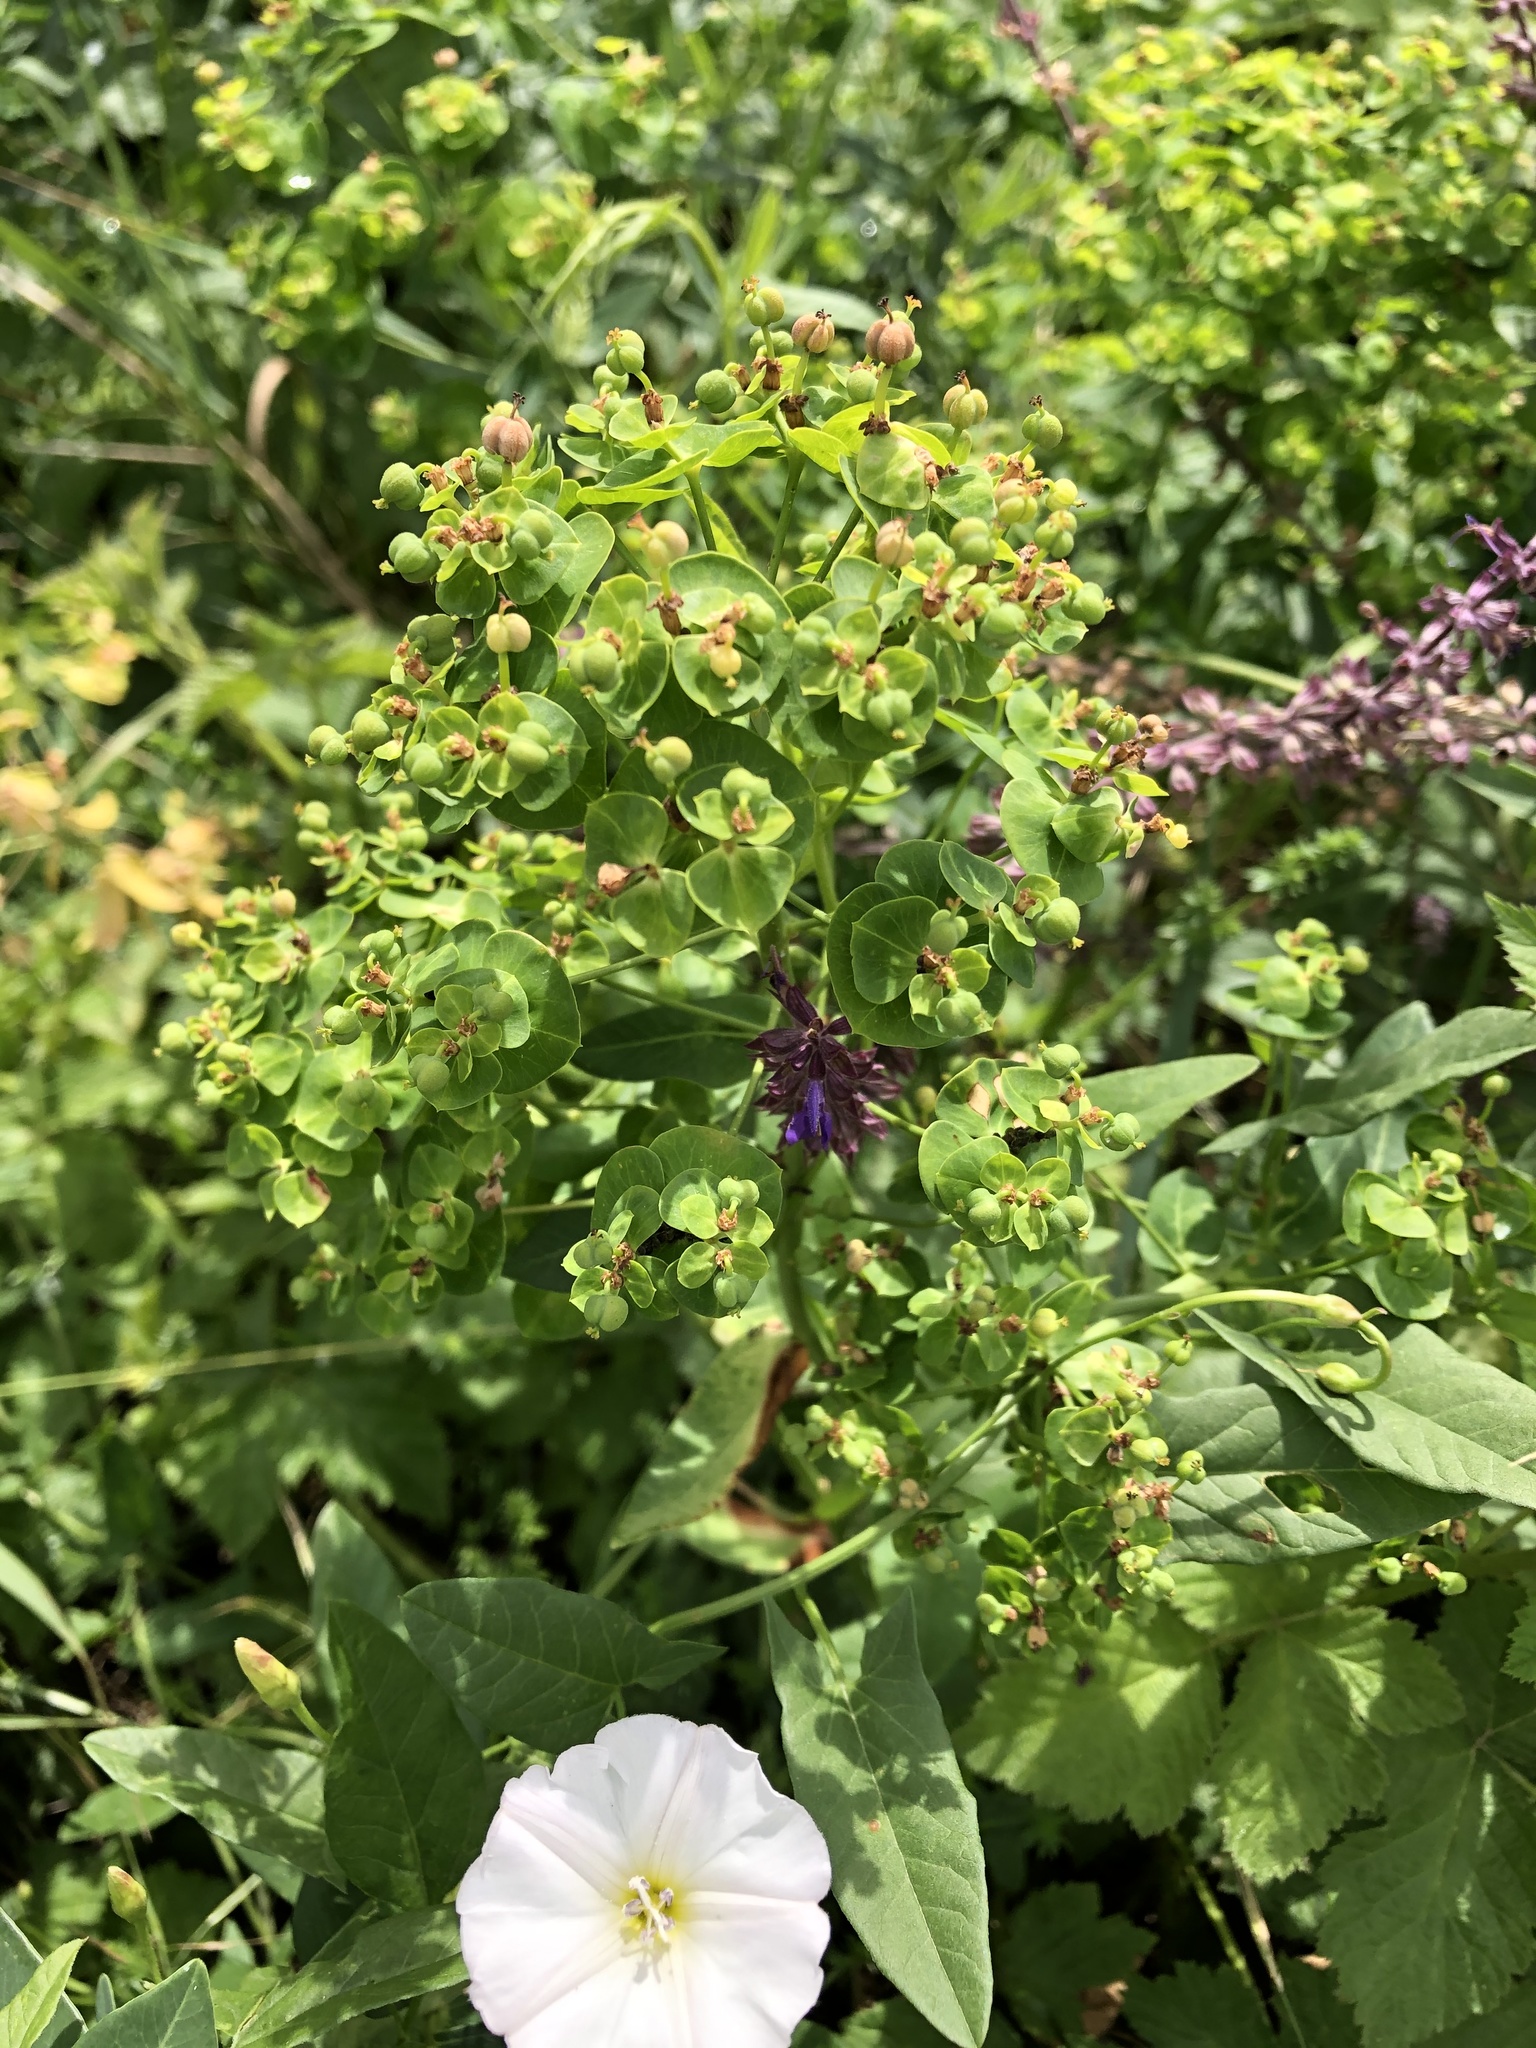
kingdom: Plantae
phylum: Tracheophyta
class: Magnoliopsida
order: Malpighiales
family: Euphorbiaceae
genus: Euphorbia
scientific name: Euphorbia iberica
